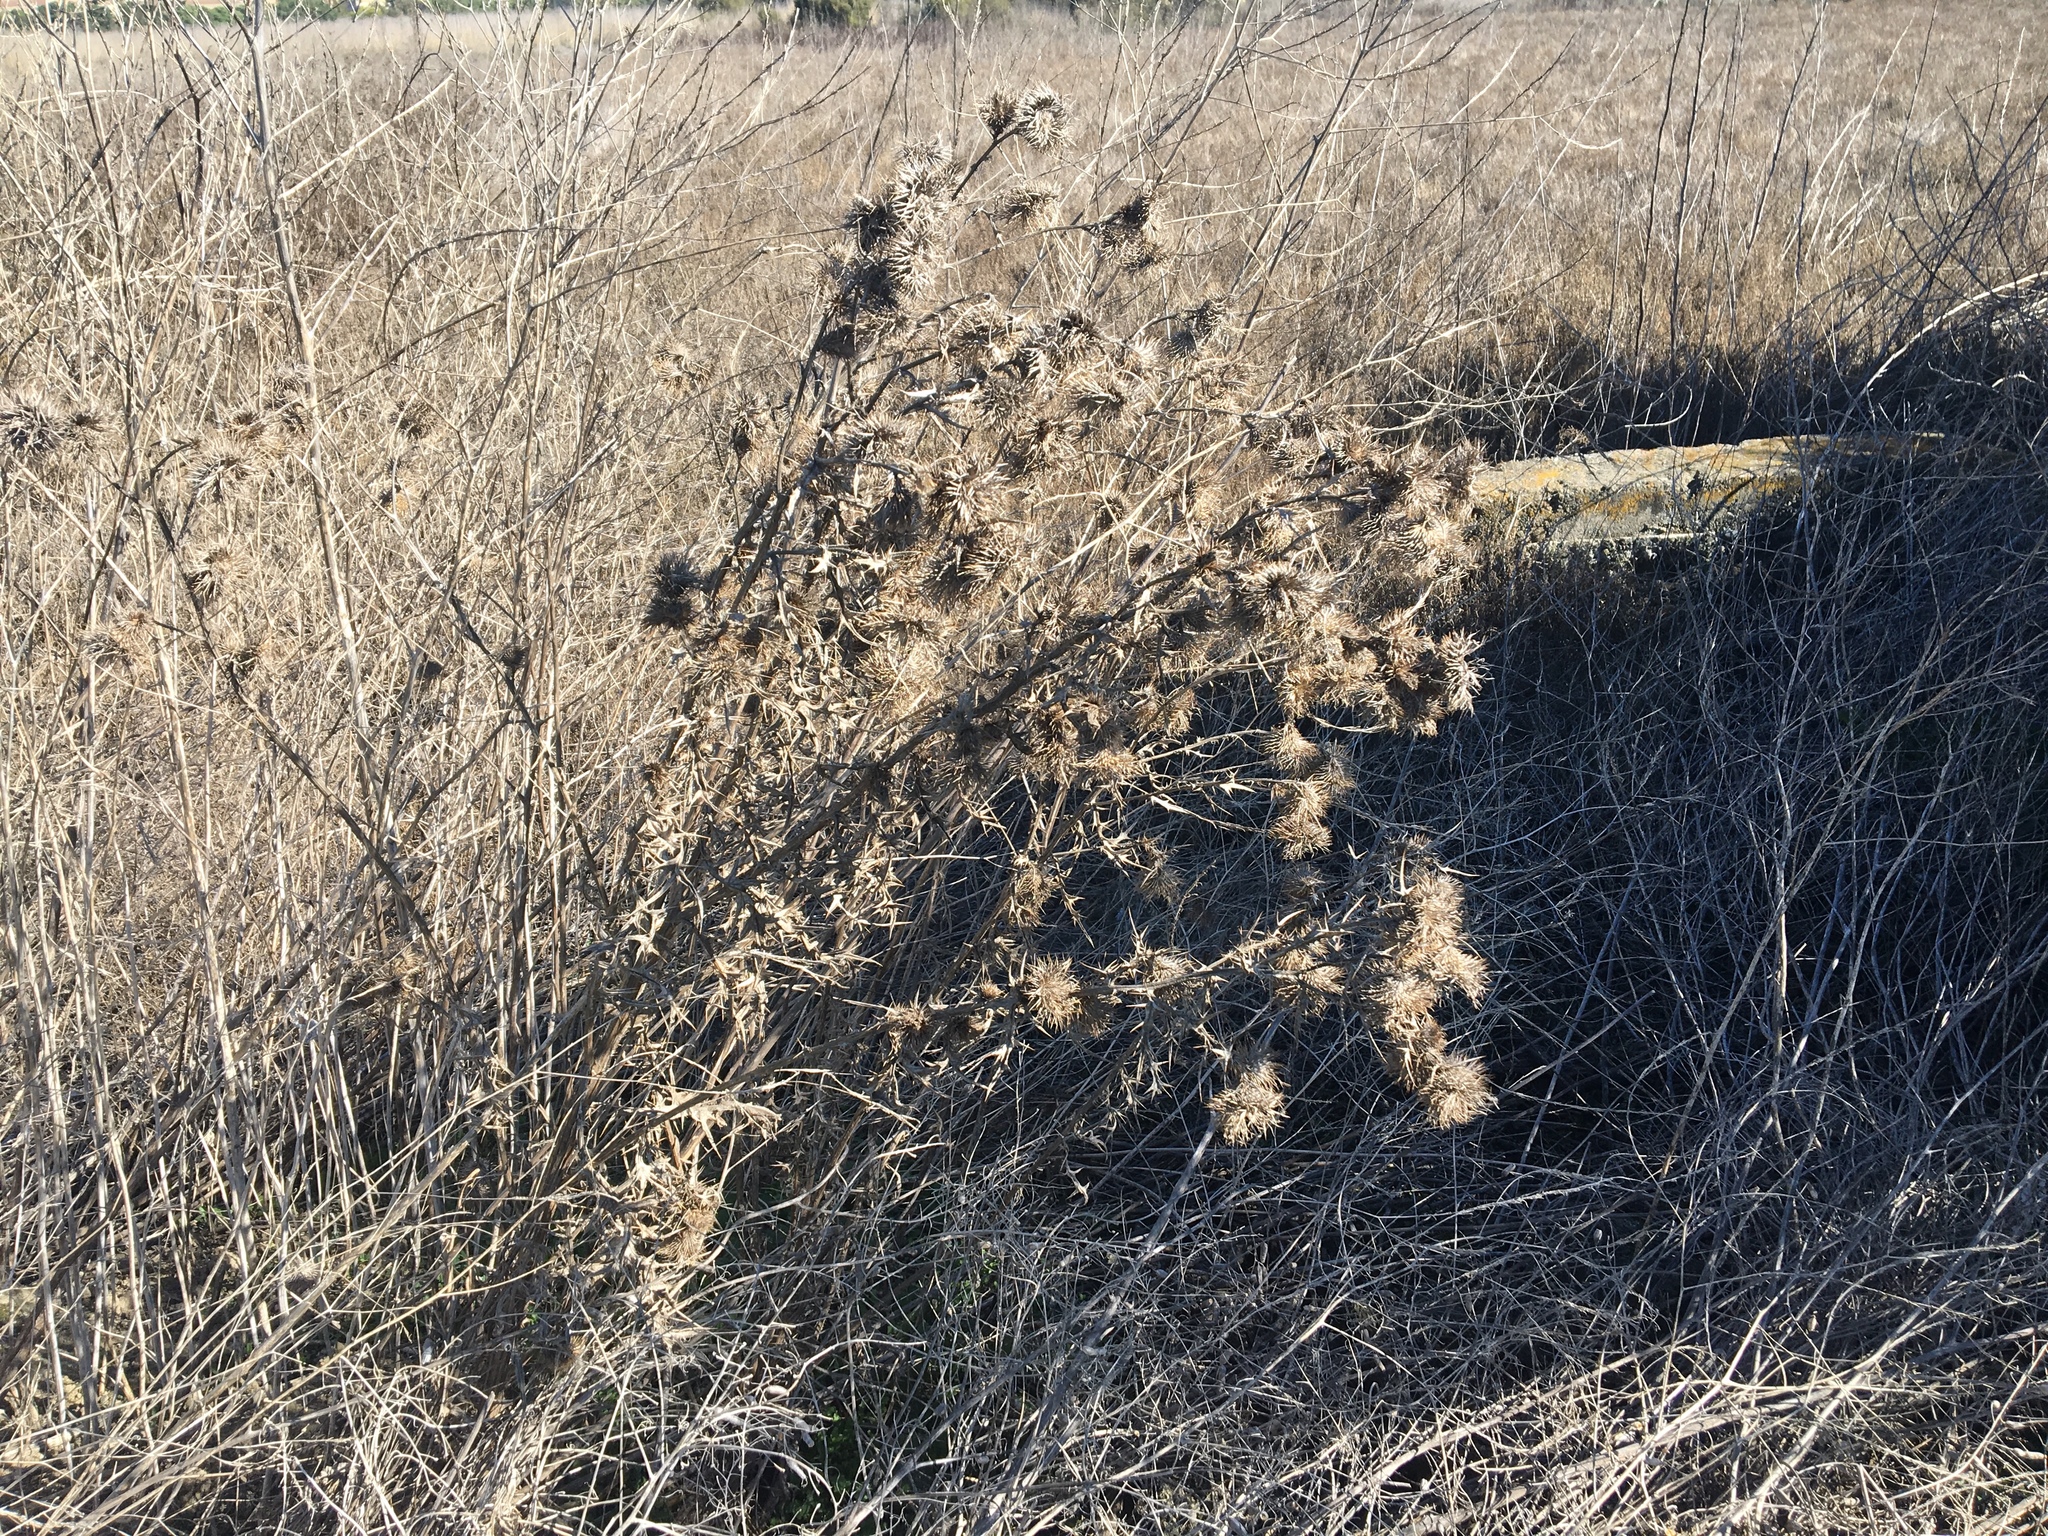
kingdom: Plantae
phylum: Tracheophyta
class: Magnoliopsida
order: Asterales
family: Asteraceae
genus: Cirsium
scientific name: Cirsium vulgare
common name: Bull thistle
